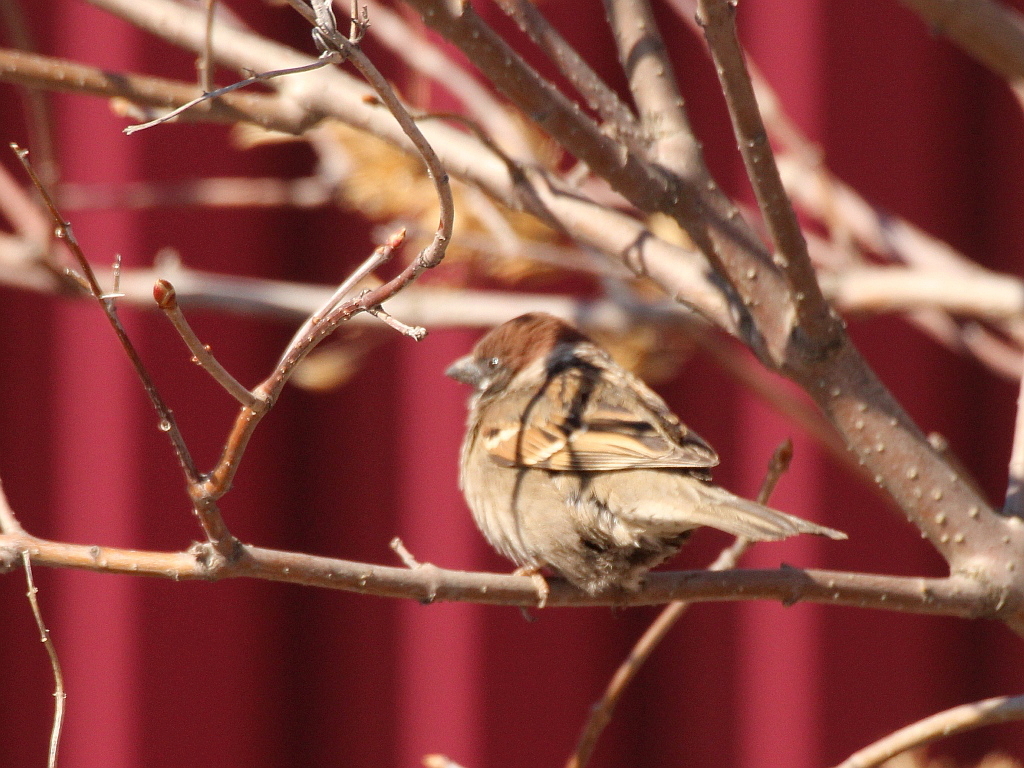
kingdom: Animalia
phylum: Chordata
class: Aves
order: Passeriformes
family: Passeridae
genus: Passer
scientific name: Passer montanus
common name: Eurasian tree sparrow
